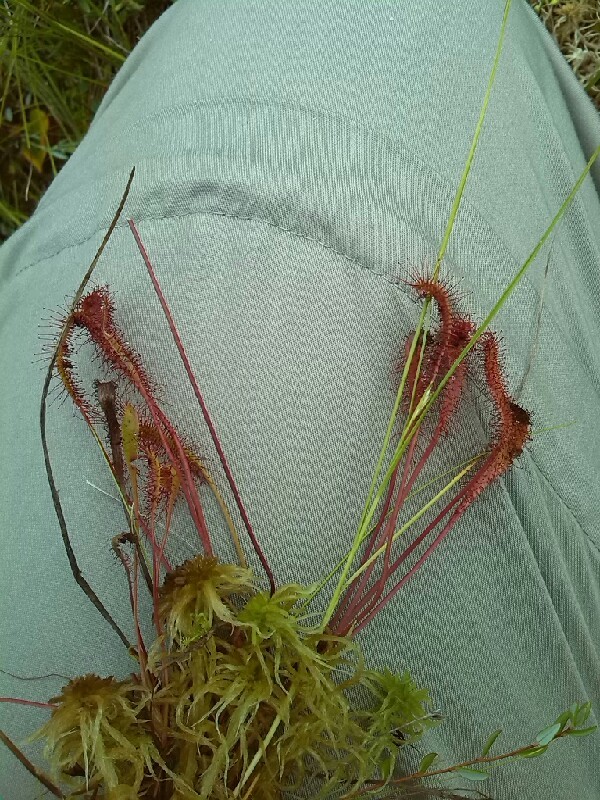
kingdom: Plantae
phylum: Tracheophyta
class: Magnoliopsida
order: Caryophyllales
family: Droseraceae
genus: Drosera
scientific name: Drosera anglica
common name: Great sundew
